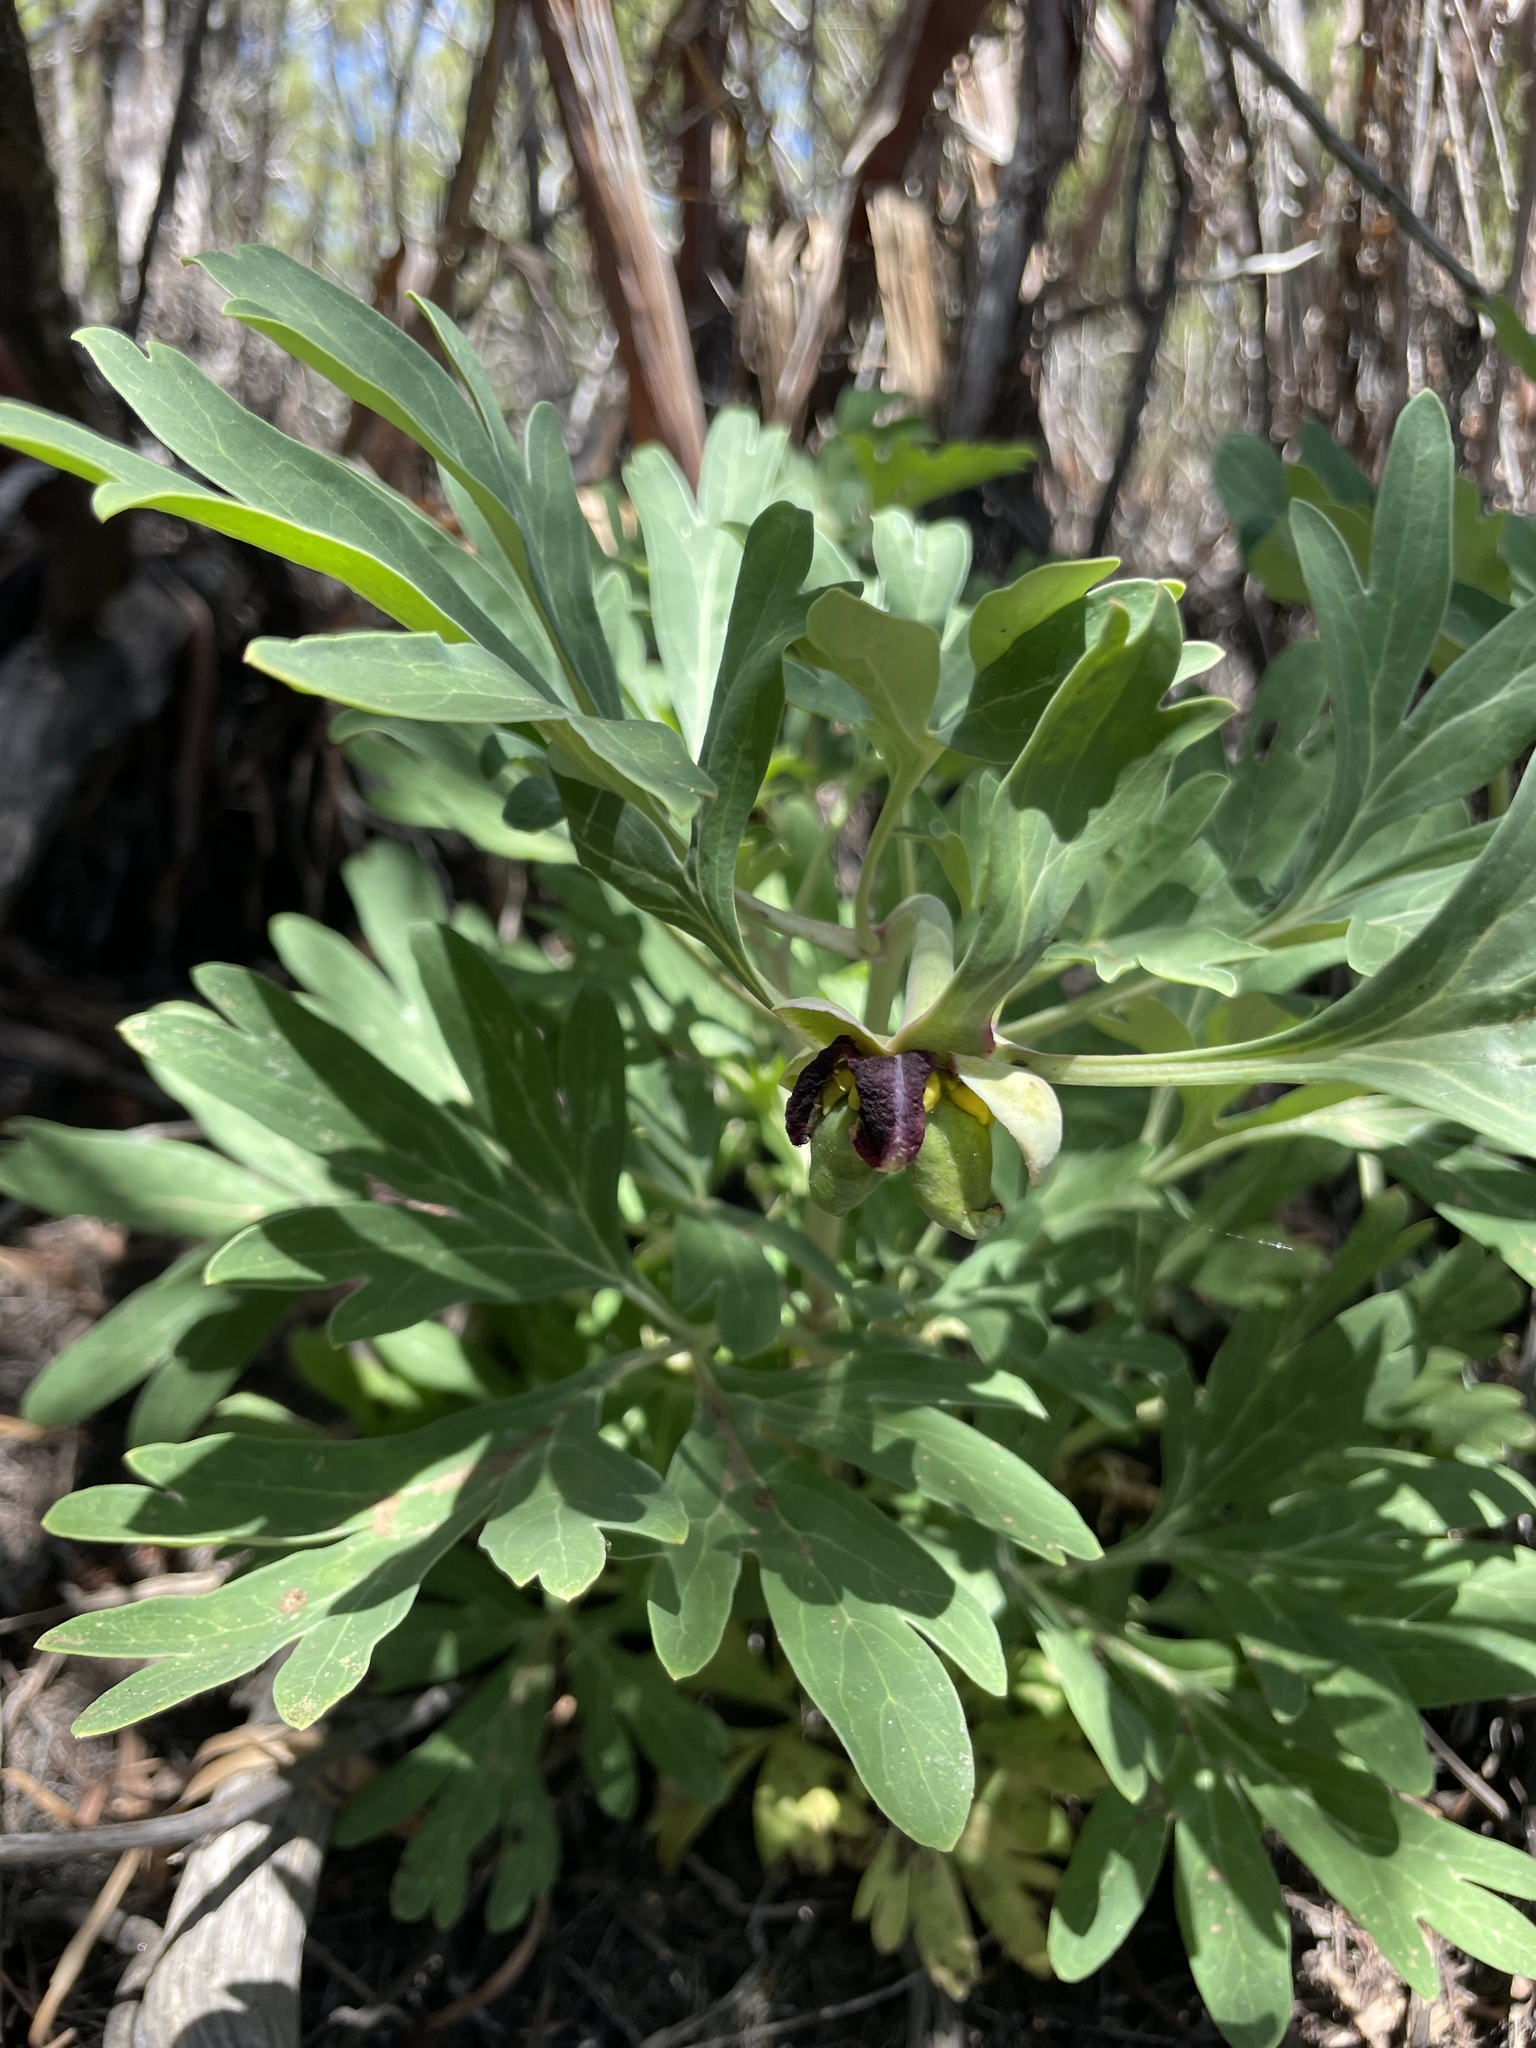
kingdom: Plantae
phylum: Tracheophyta
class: Magnoliopsida
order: Saxifragales
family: Paeoniaceae
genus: Paeonia
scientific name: Paeonia californica
